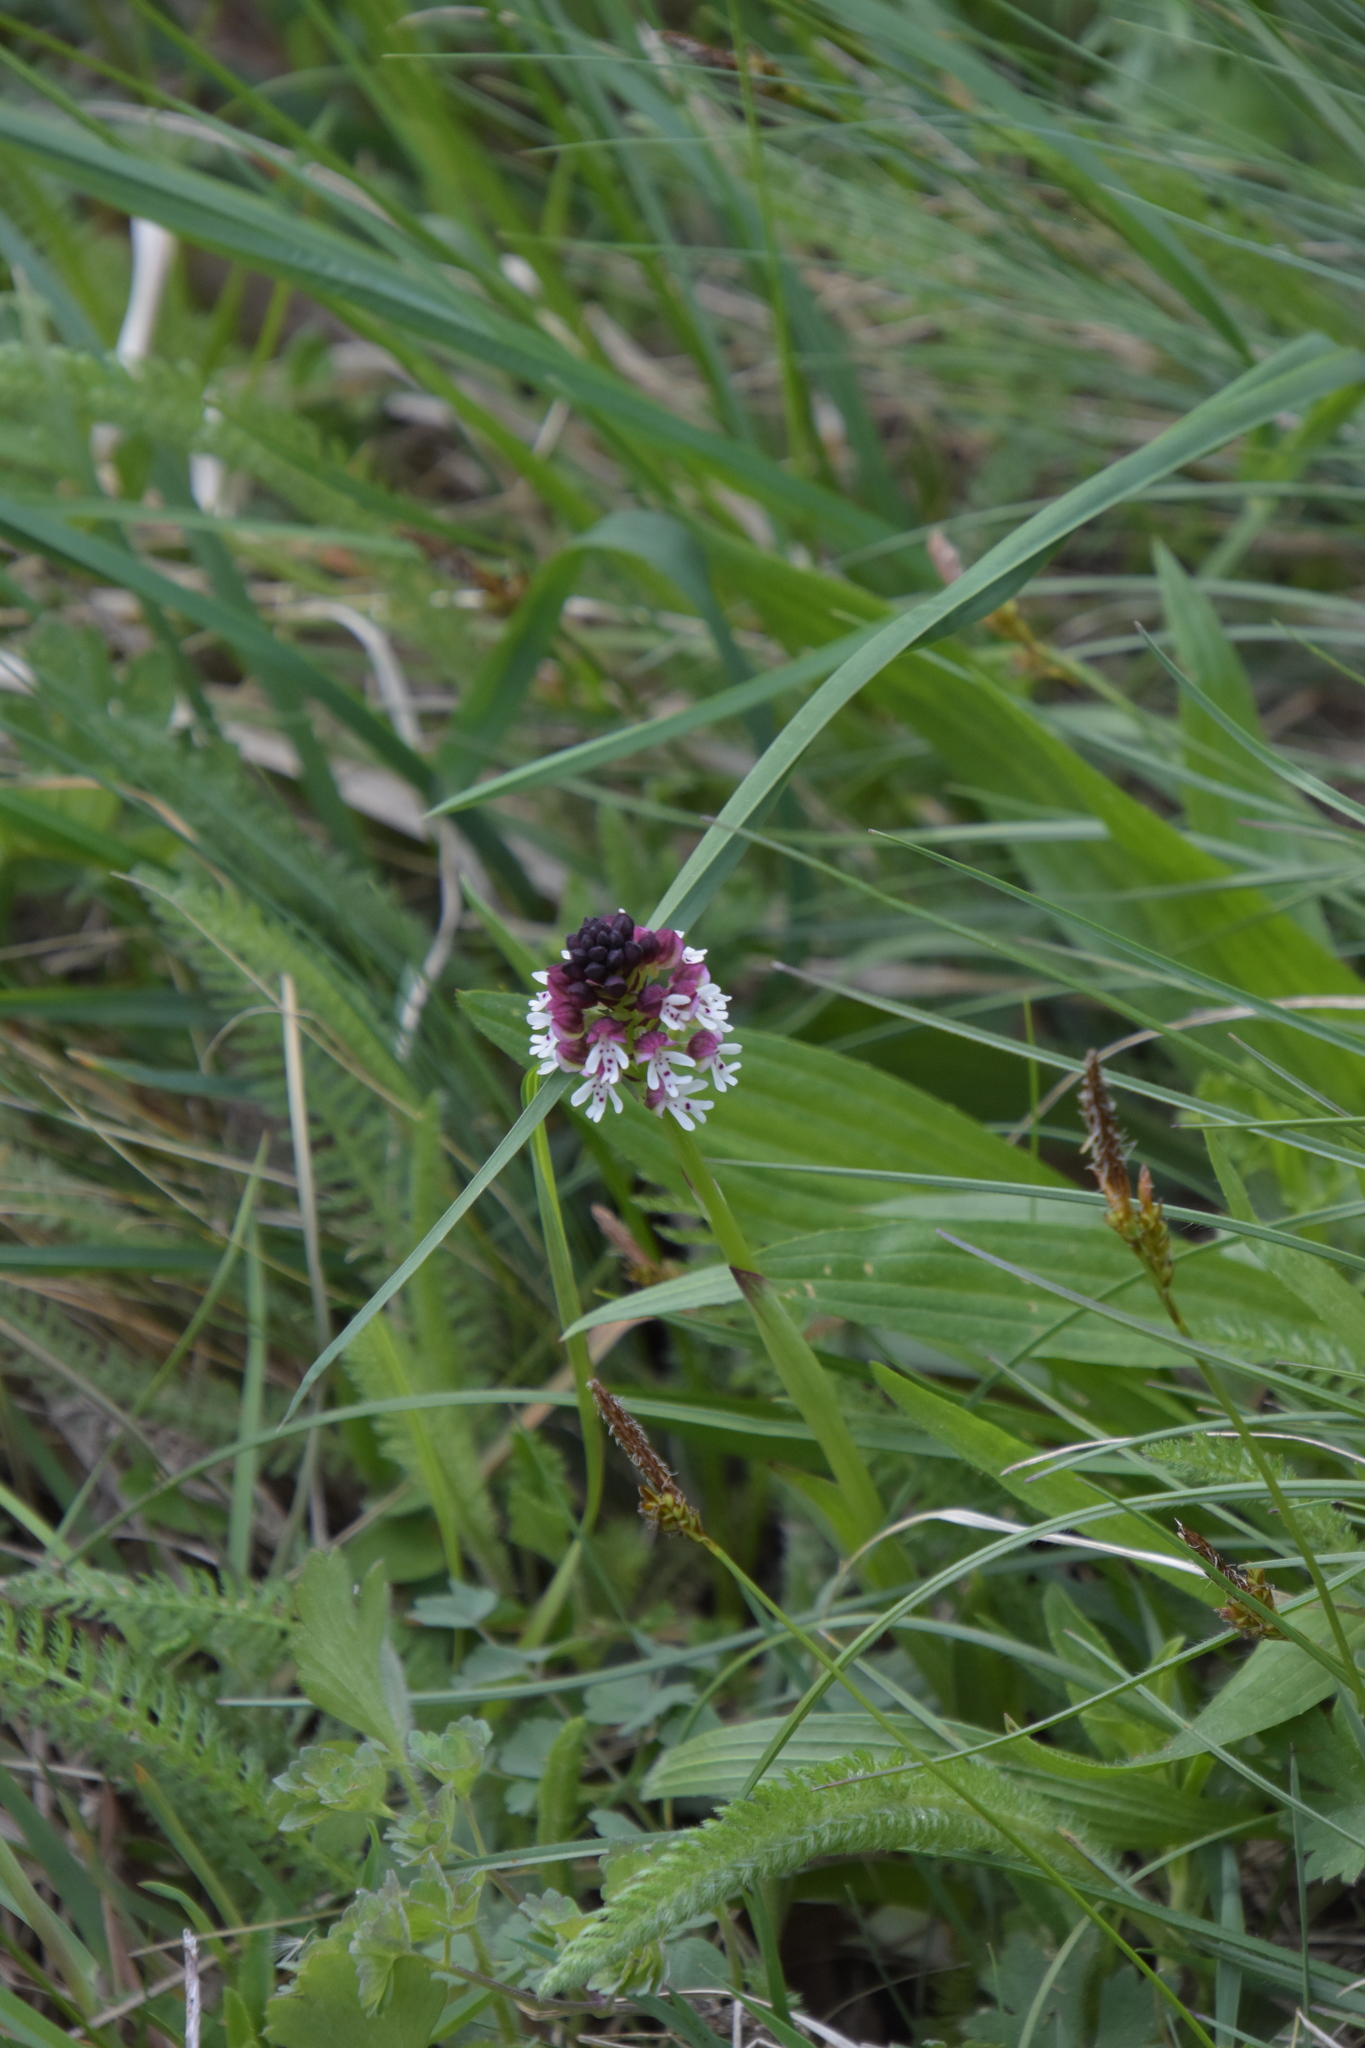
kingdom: Plantae
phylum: Tracheophyta
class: Liliopsida
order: Asparagales
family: Orchidaceae
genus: Neotinea
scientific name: Neotinea ustulata
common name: Burnt orchid
